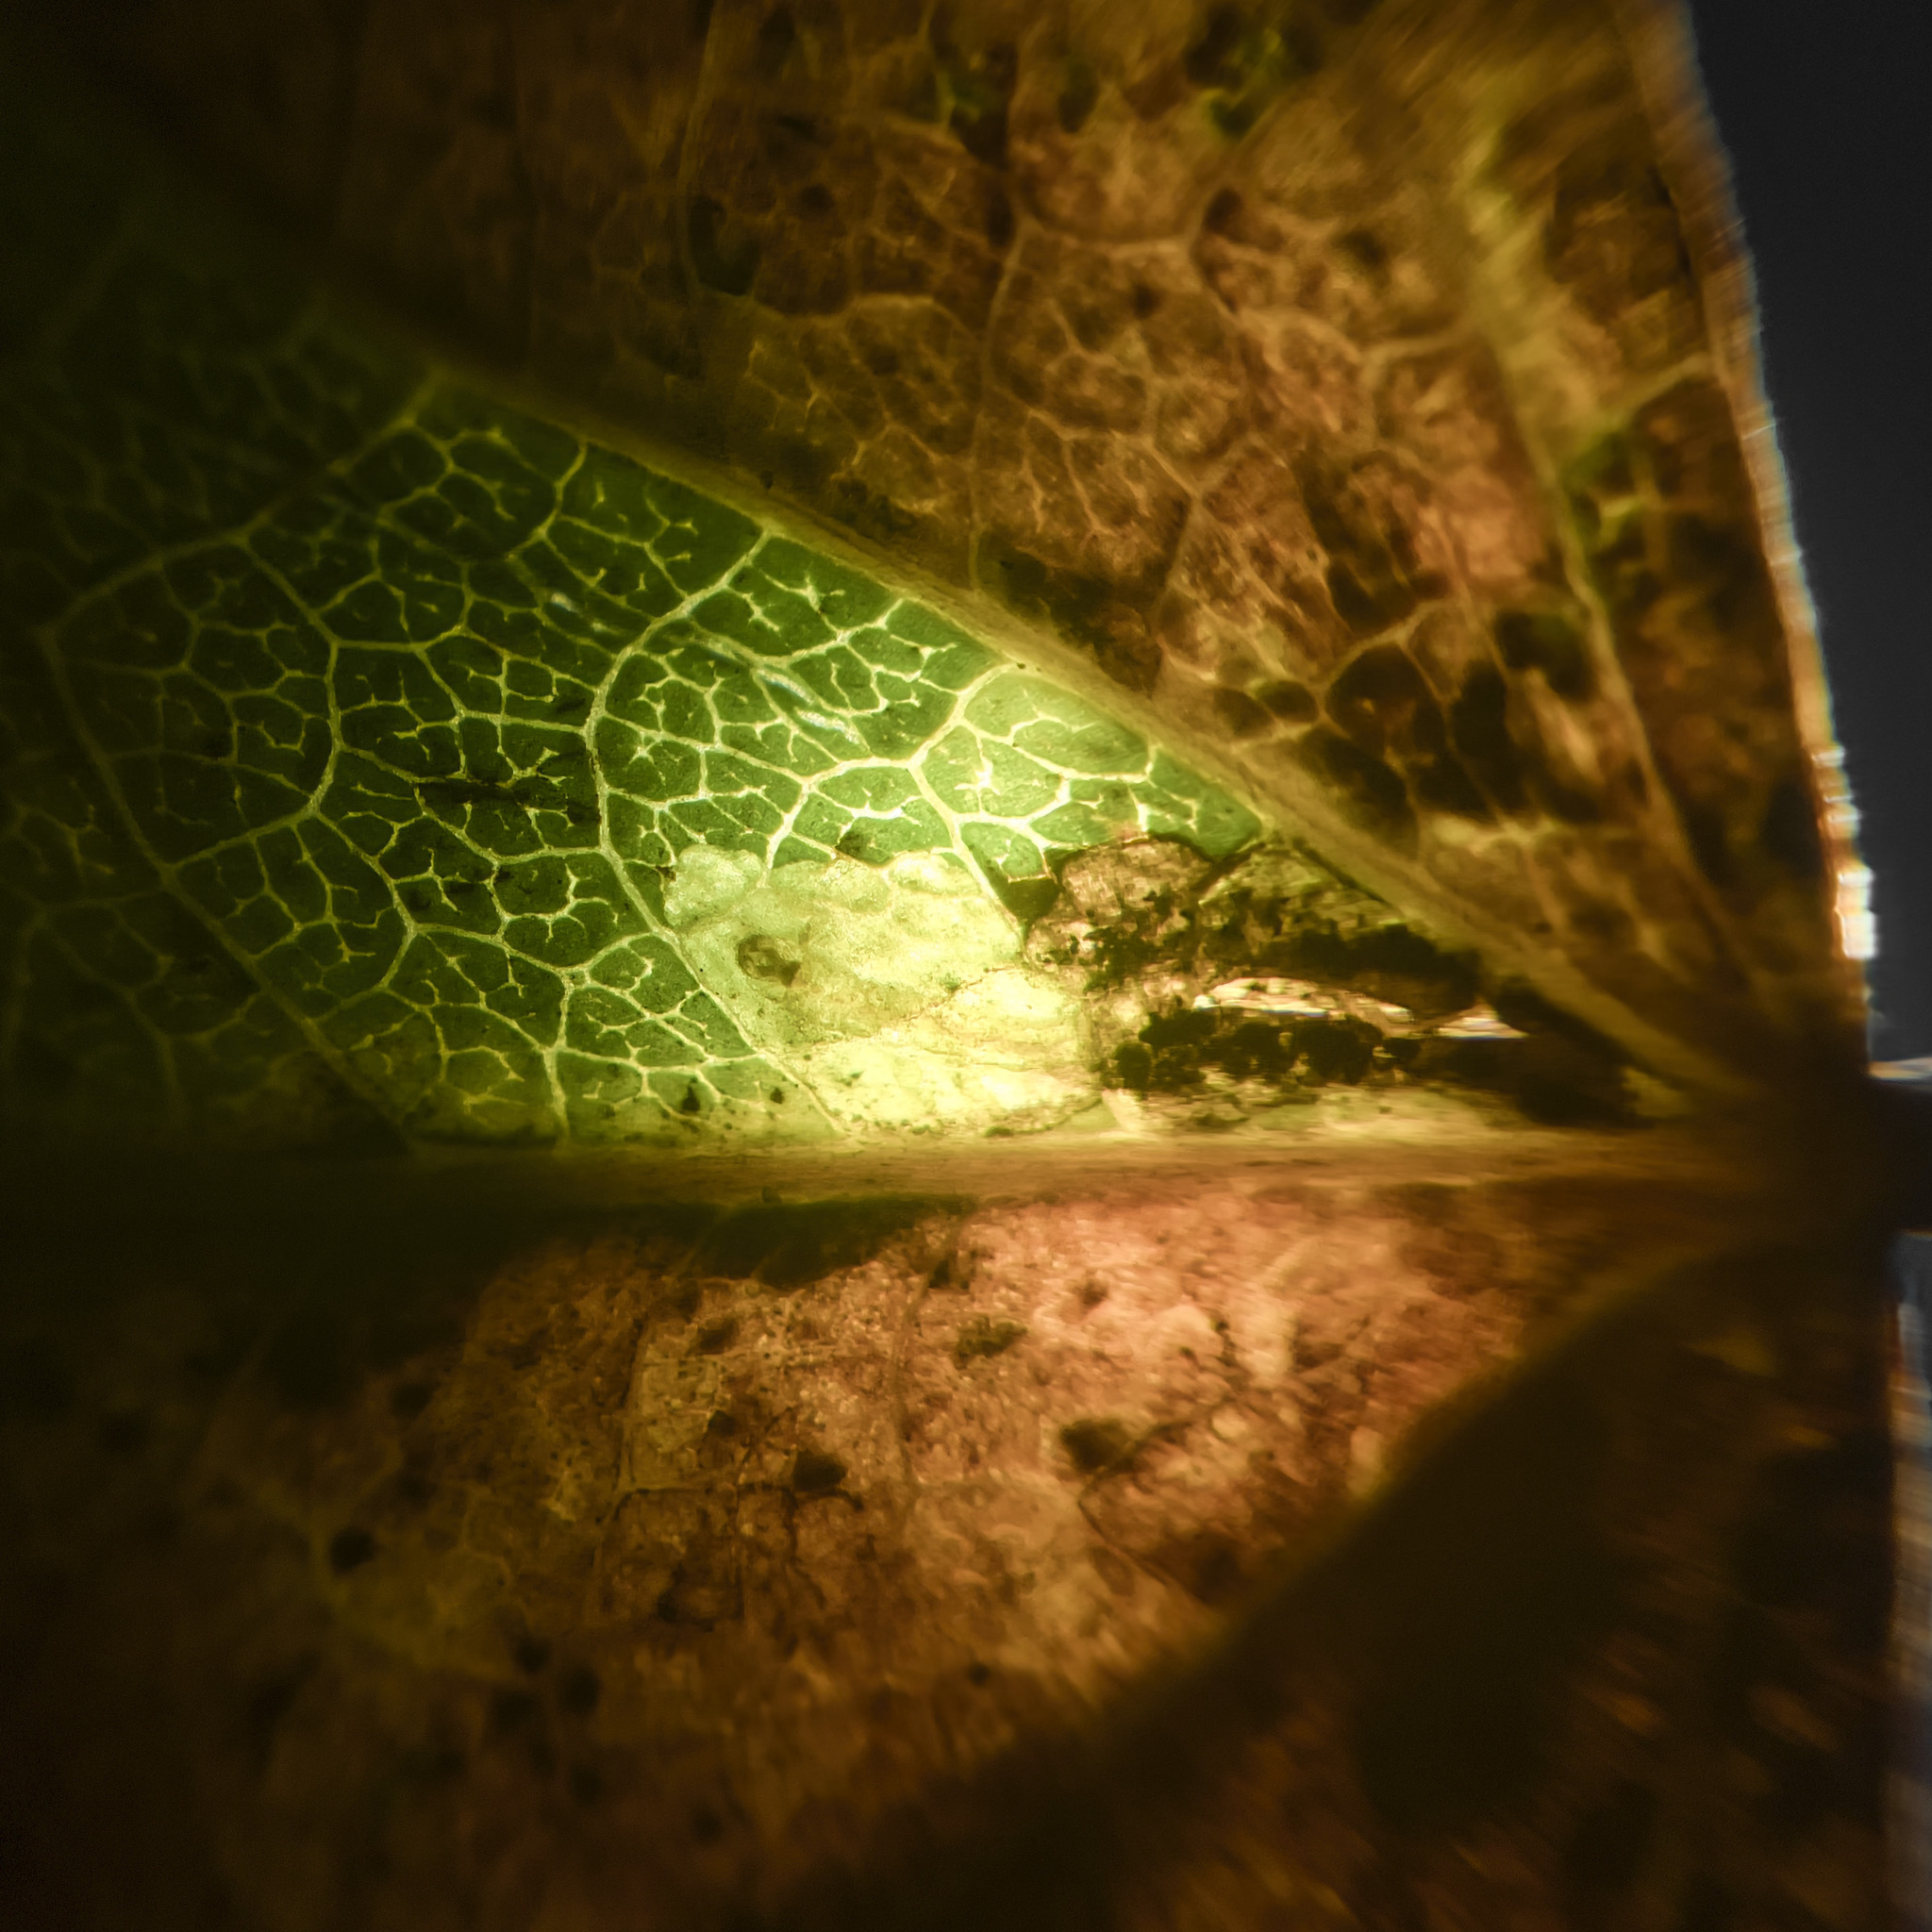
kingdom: Animalia
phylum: Arthropoda
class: Insecta
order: Lepidoptera
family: Nepticulidae
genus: Ectoedemia
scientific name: Ectoedemia argyropeza
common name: Virgin pigmy
